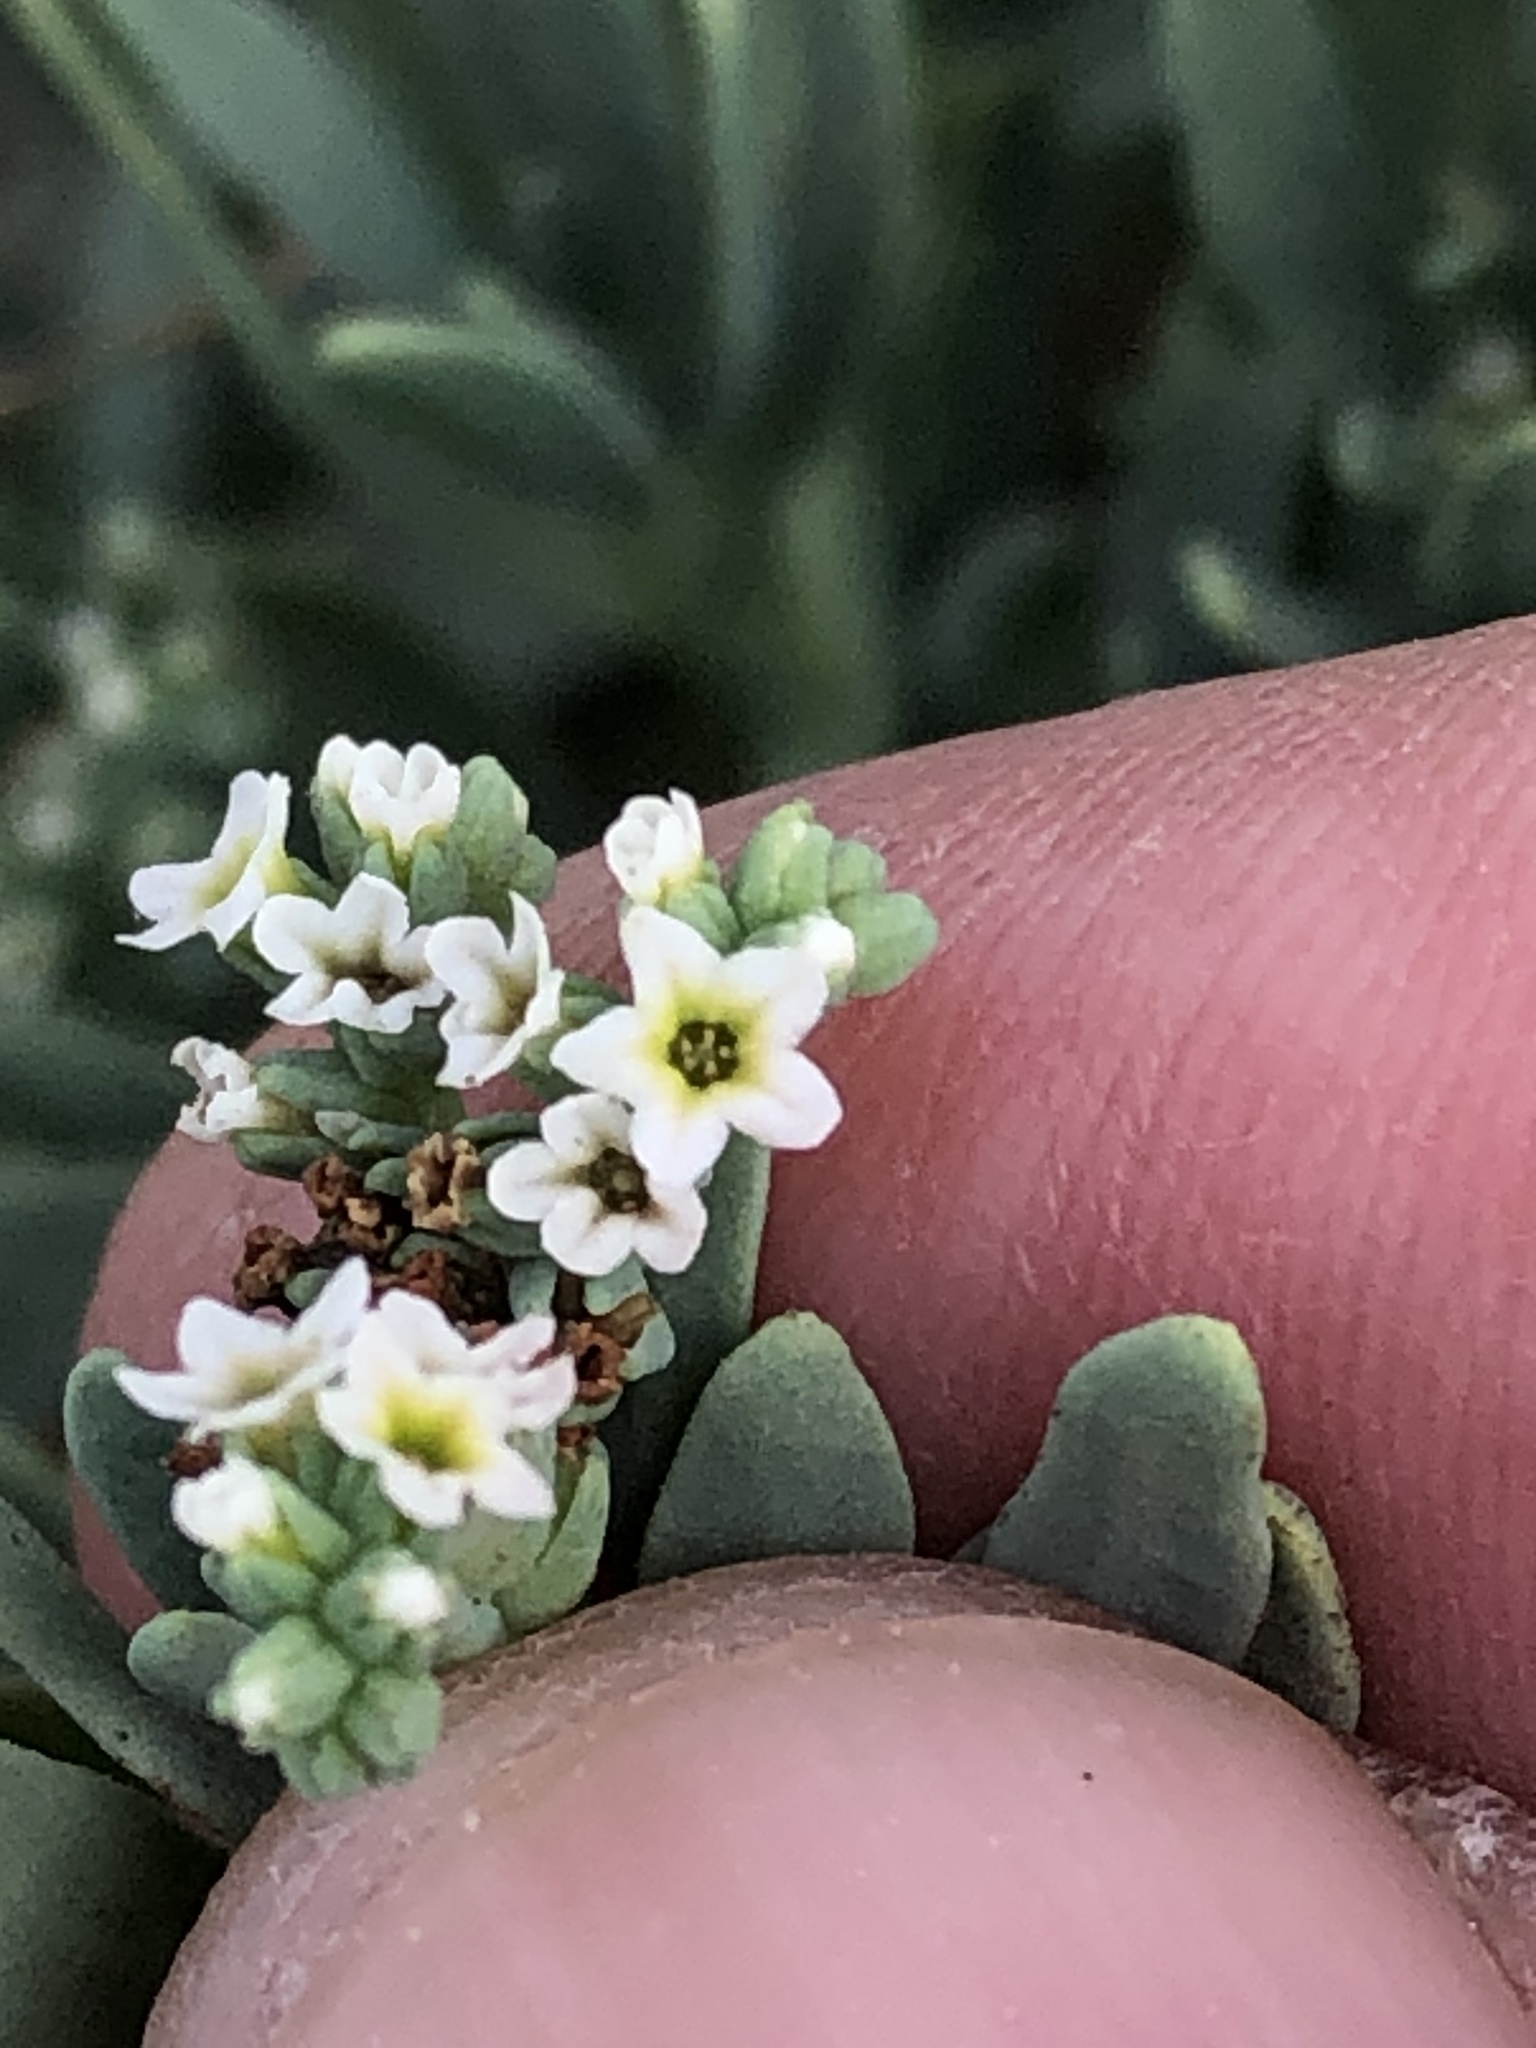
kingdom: Plantae
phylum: Tracheophyta
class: Magnoliopsida
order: Boraginales
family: Heliotropiaceae
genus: Heliotropium
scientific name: Heliotropium curassavicum
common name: Seaside heliotrope
